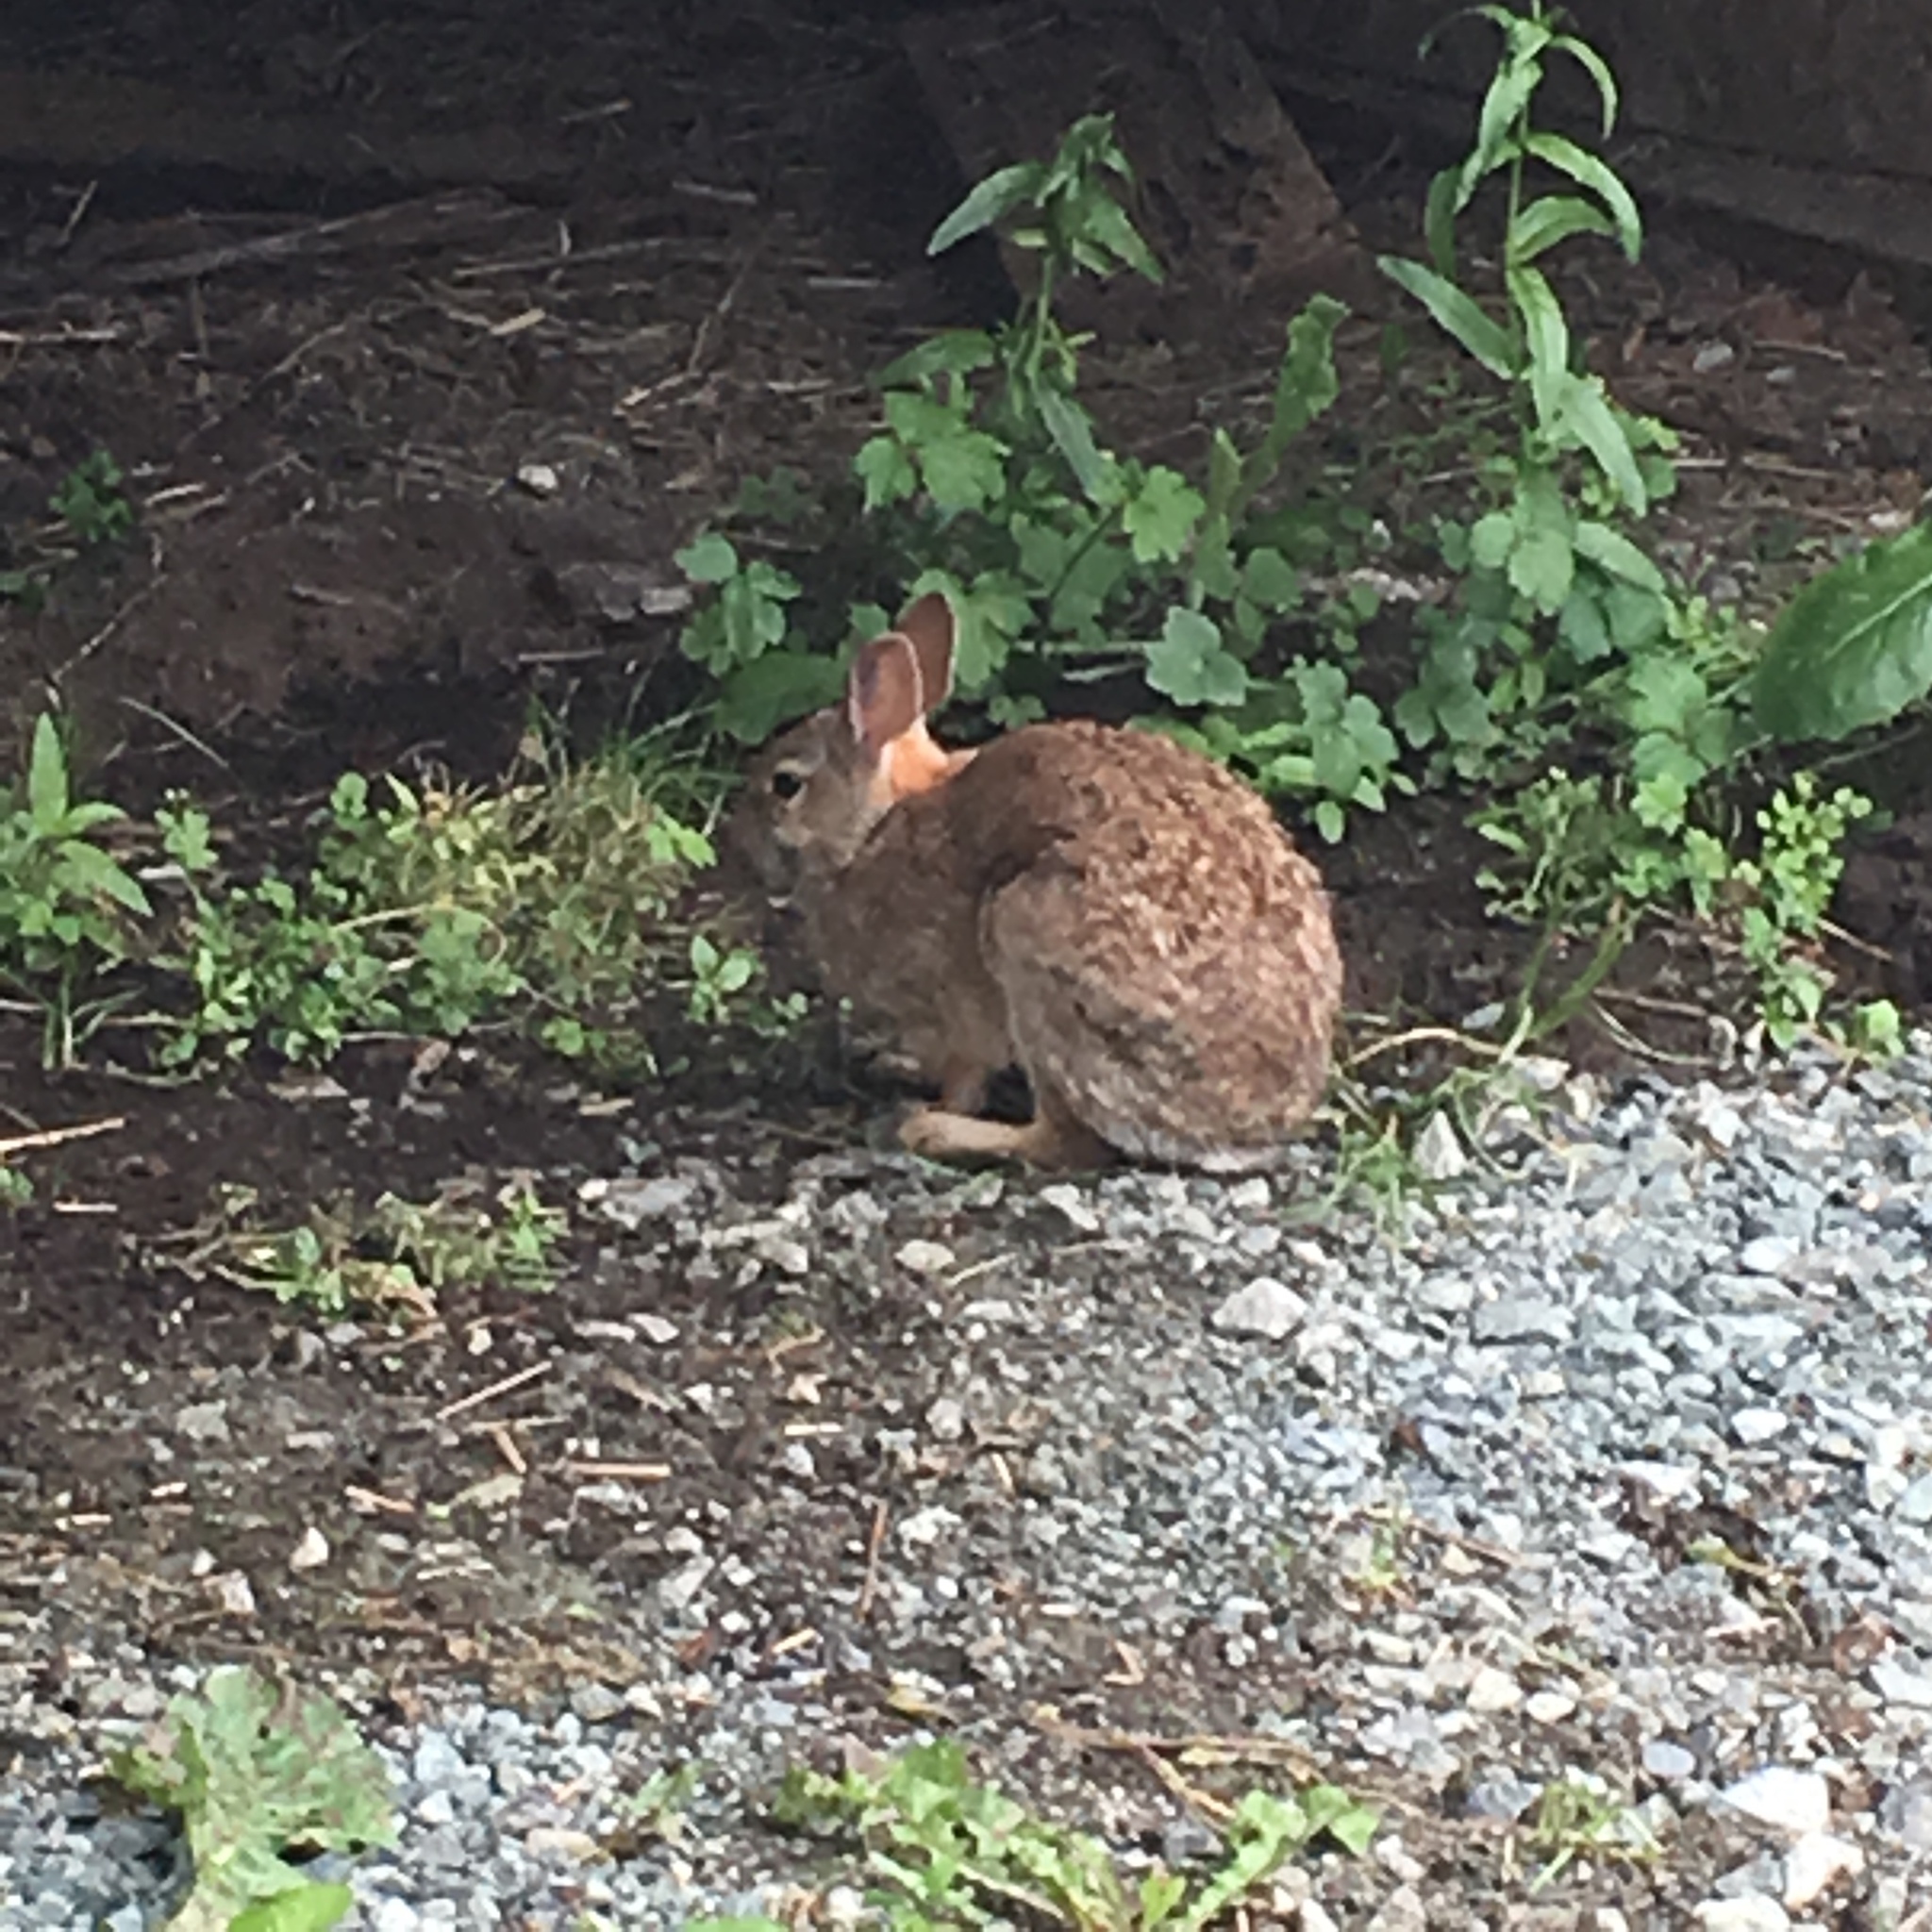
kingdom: Animalia
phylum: Chordata
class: Mammalia
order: Lagomorpha
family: Leporidae
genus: Sylvilagus
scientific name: Sylvilagus floridanus
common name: Eastern cottontail
